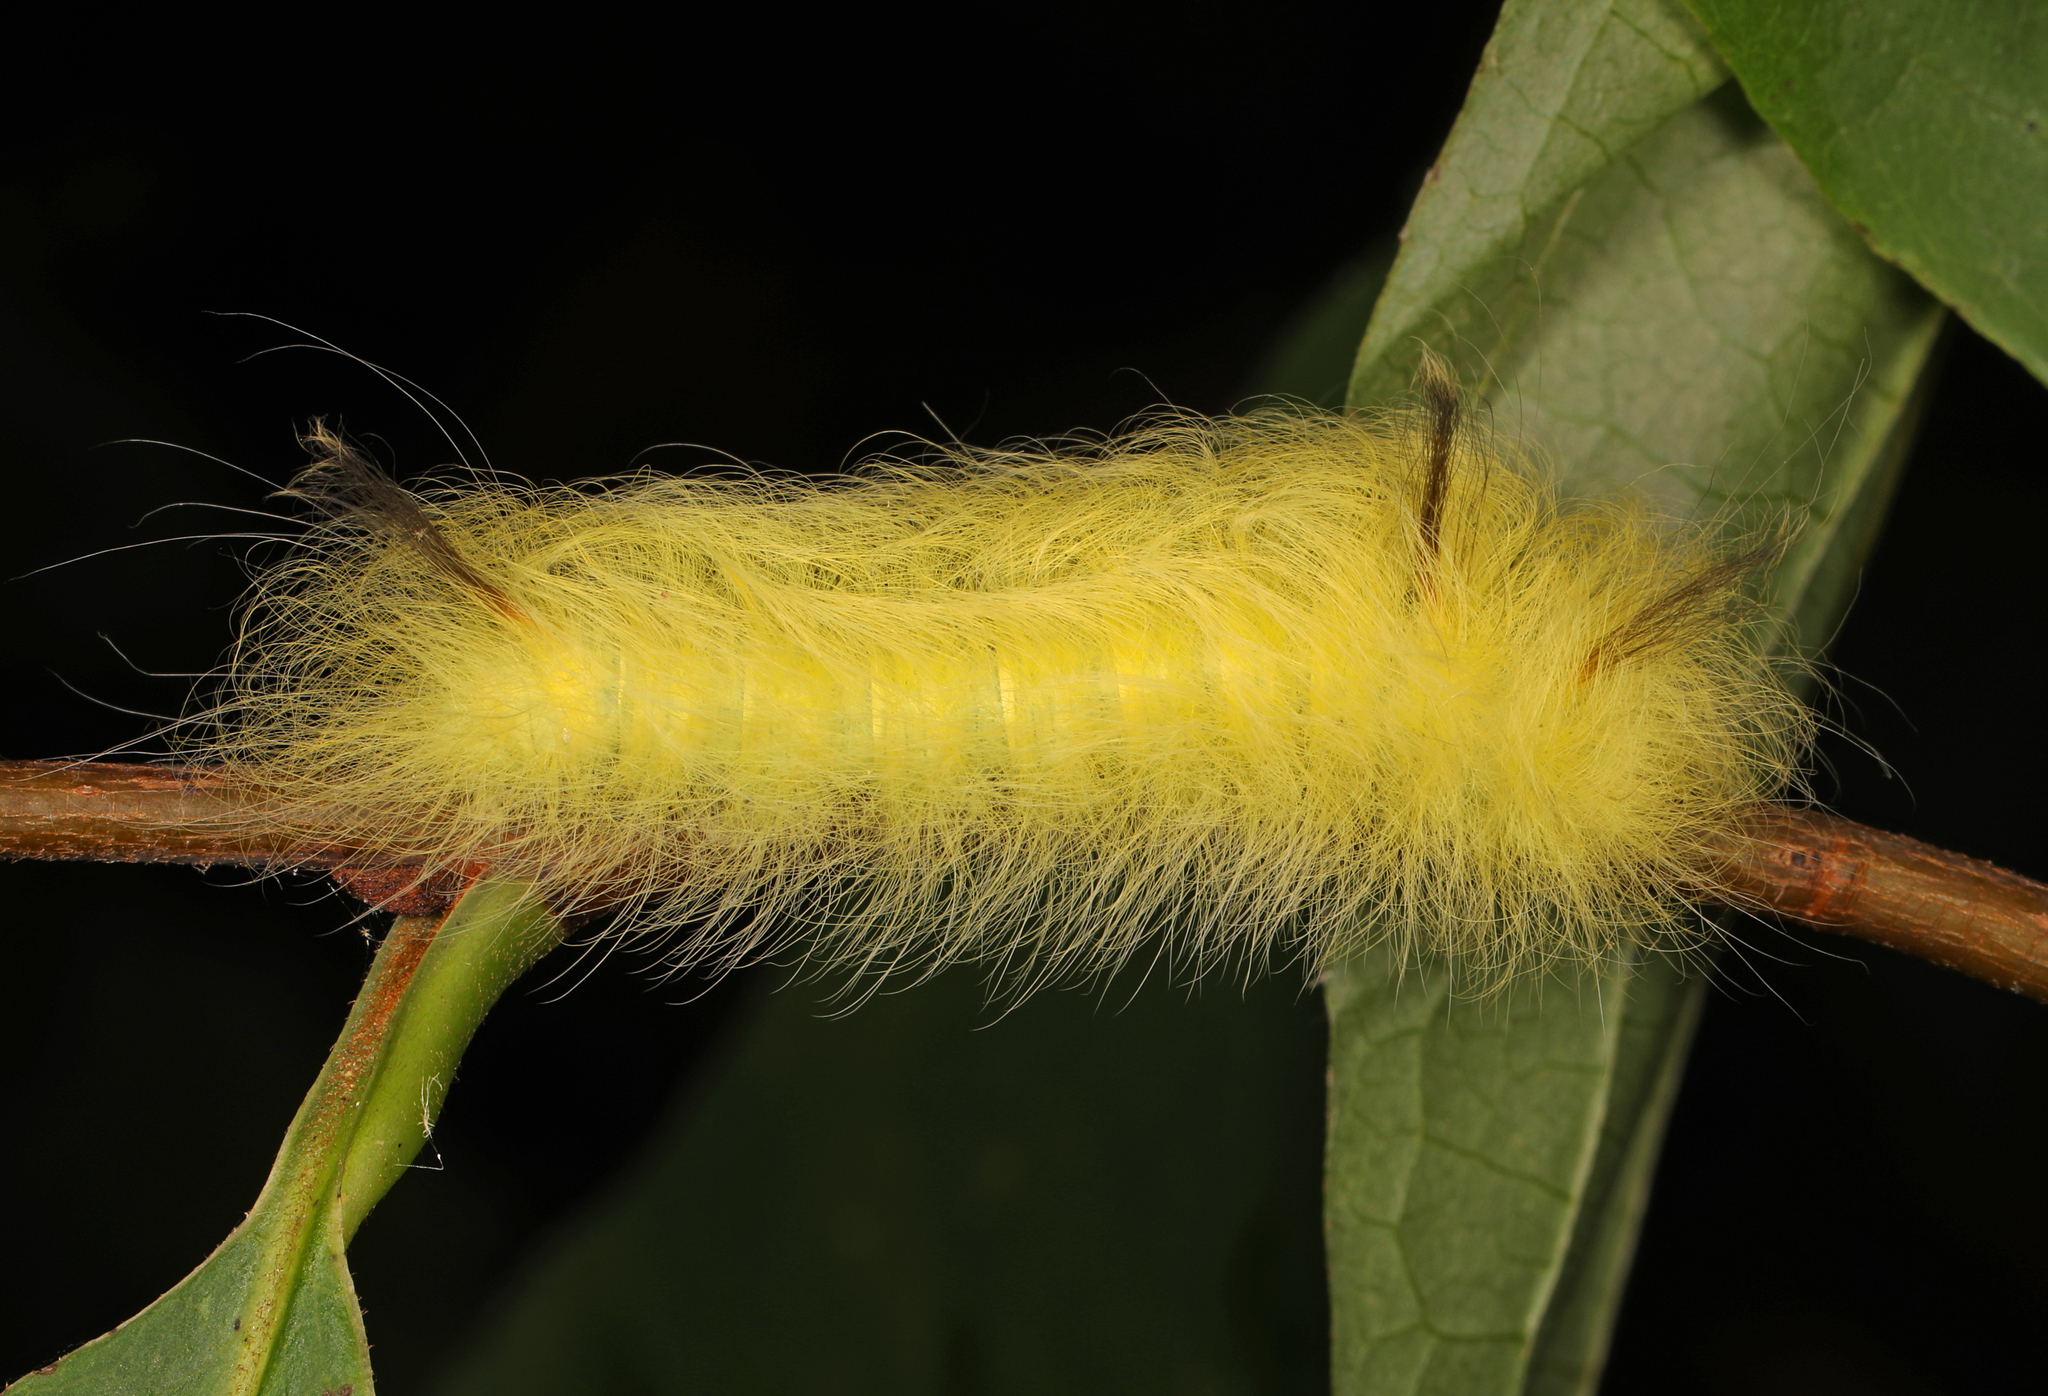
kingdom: Animalia
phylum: Arthropoda
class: Insecta
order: Lepidoptera
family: Apatelodidae
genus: Hygrochroa
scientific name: Hygrochroa Apatelodes torrefacta
